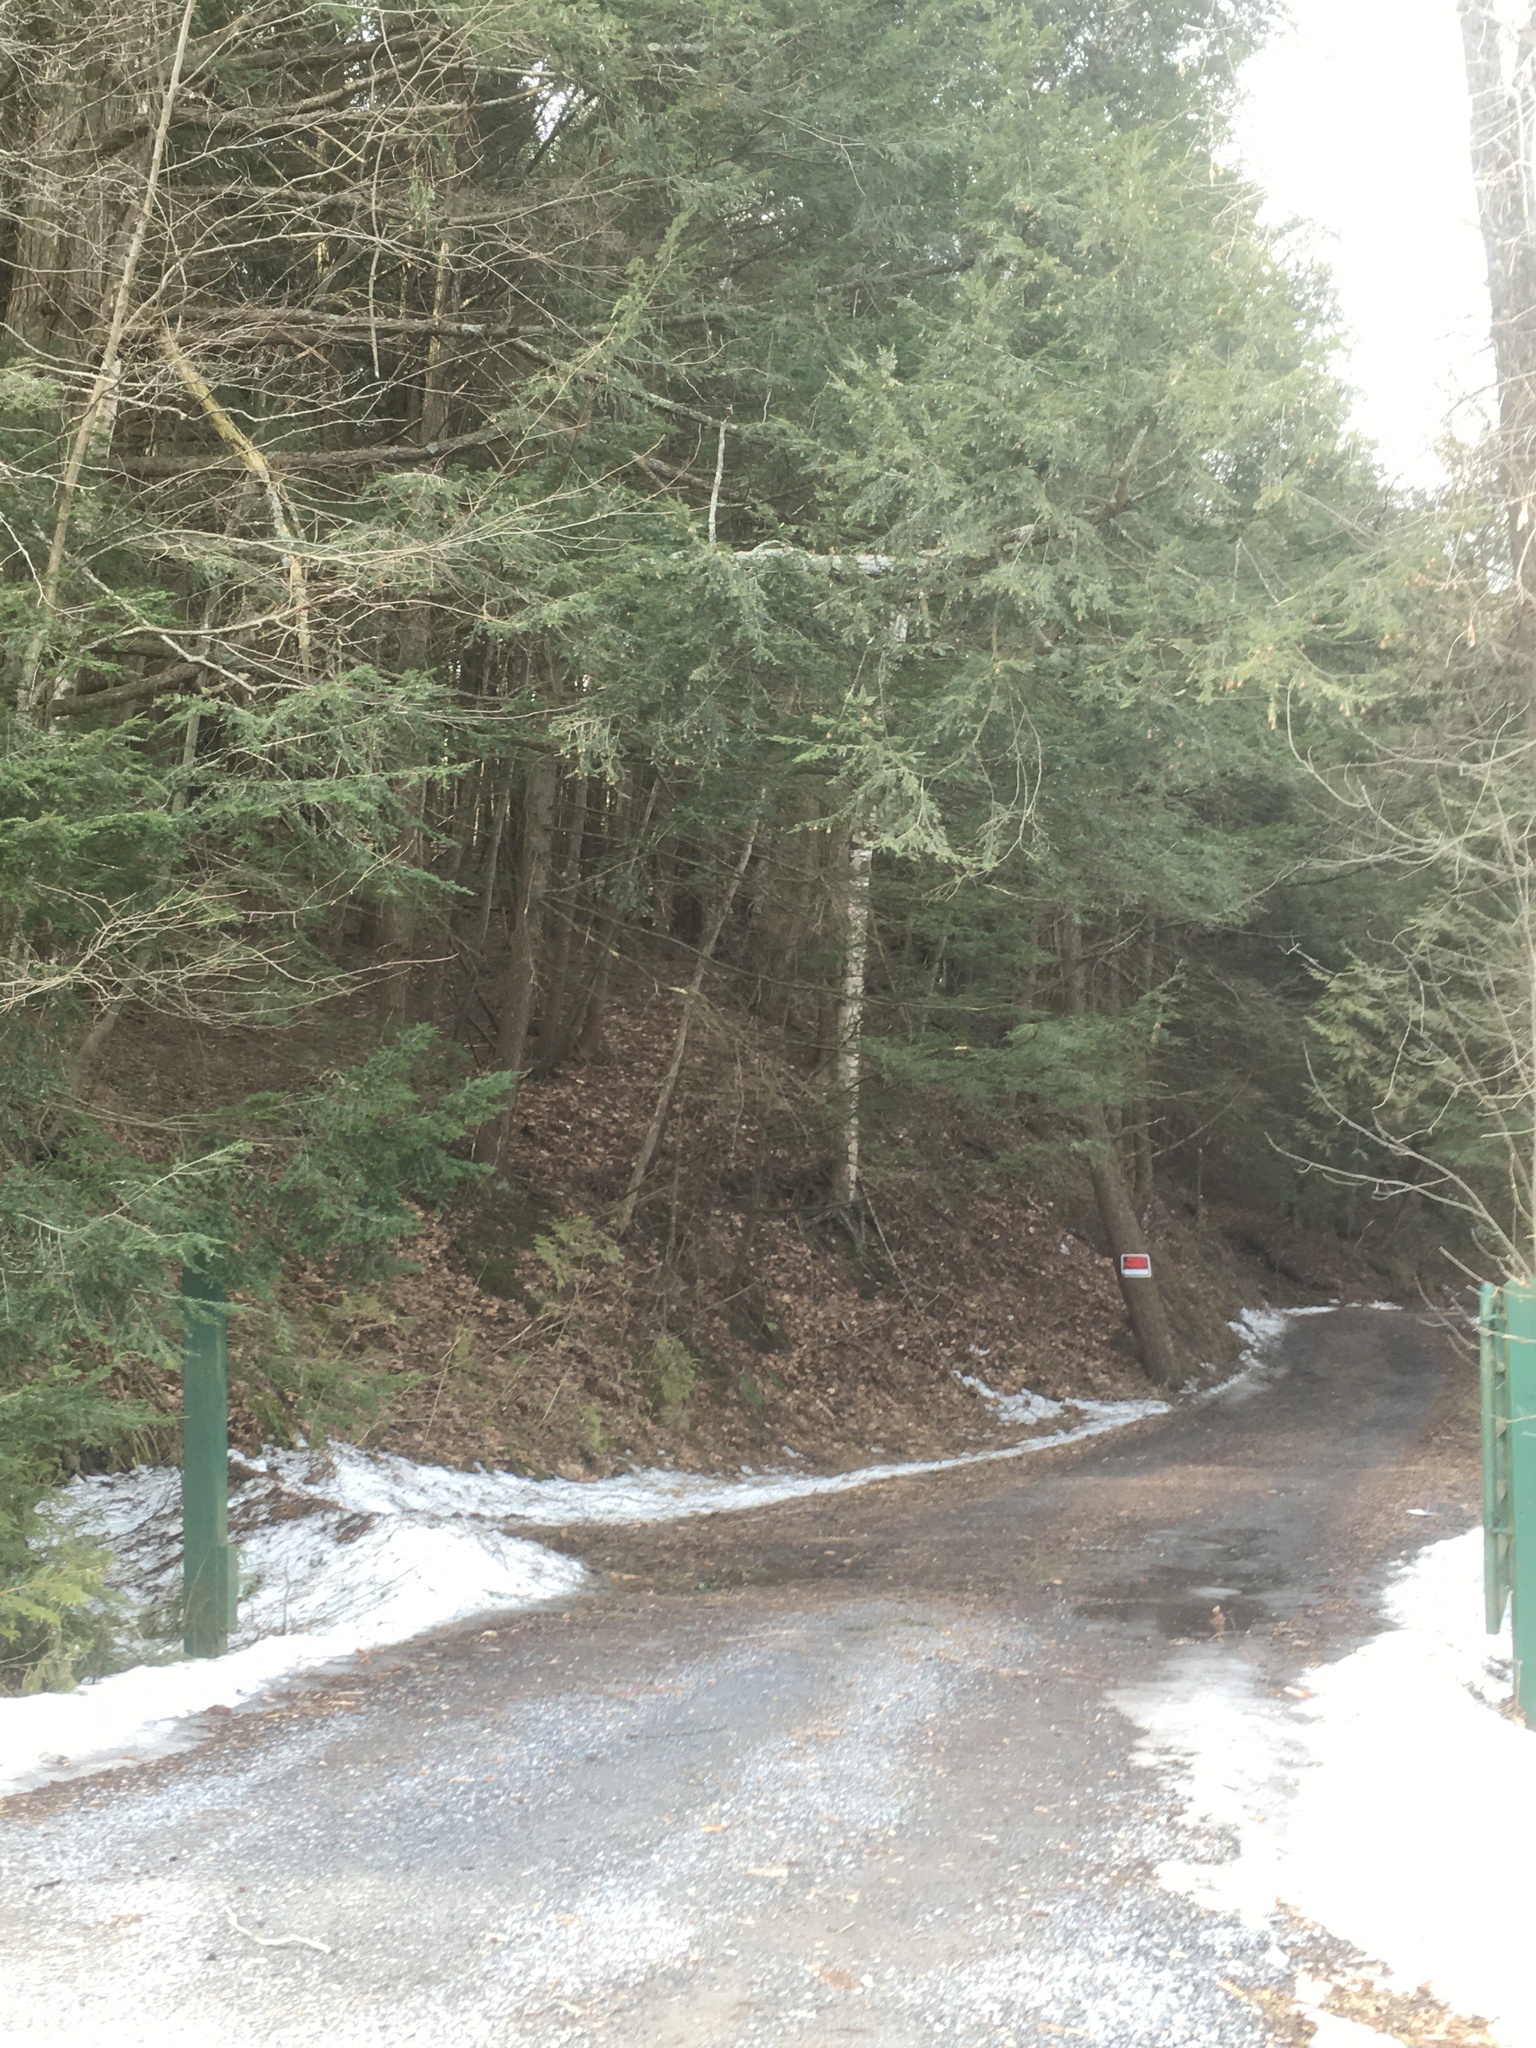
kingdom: Plantae
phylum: Tracheophyta
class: Pinopsida
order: Pinales
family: Pinaceae
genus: Tsuga
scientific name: Tsuga canadensis
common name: Eastern hemlock
